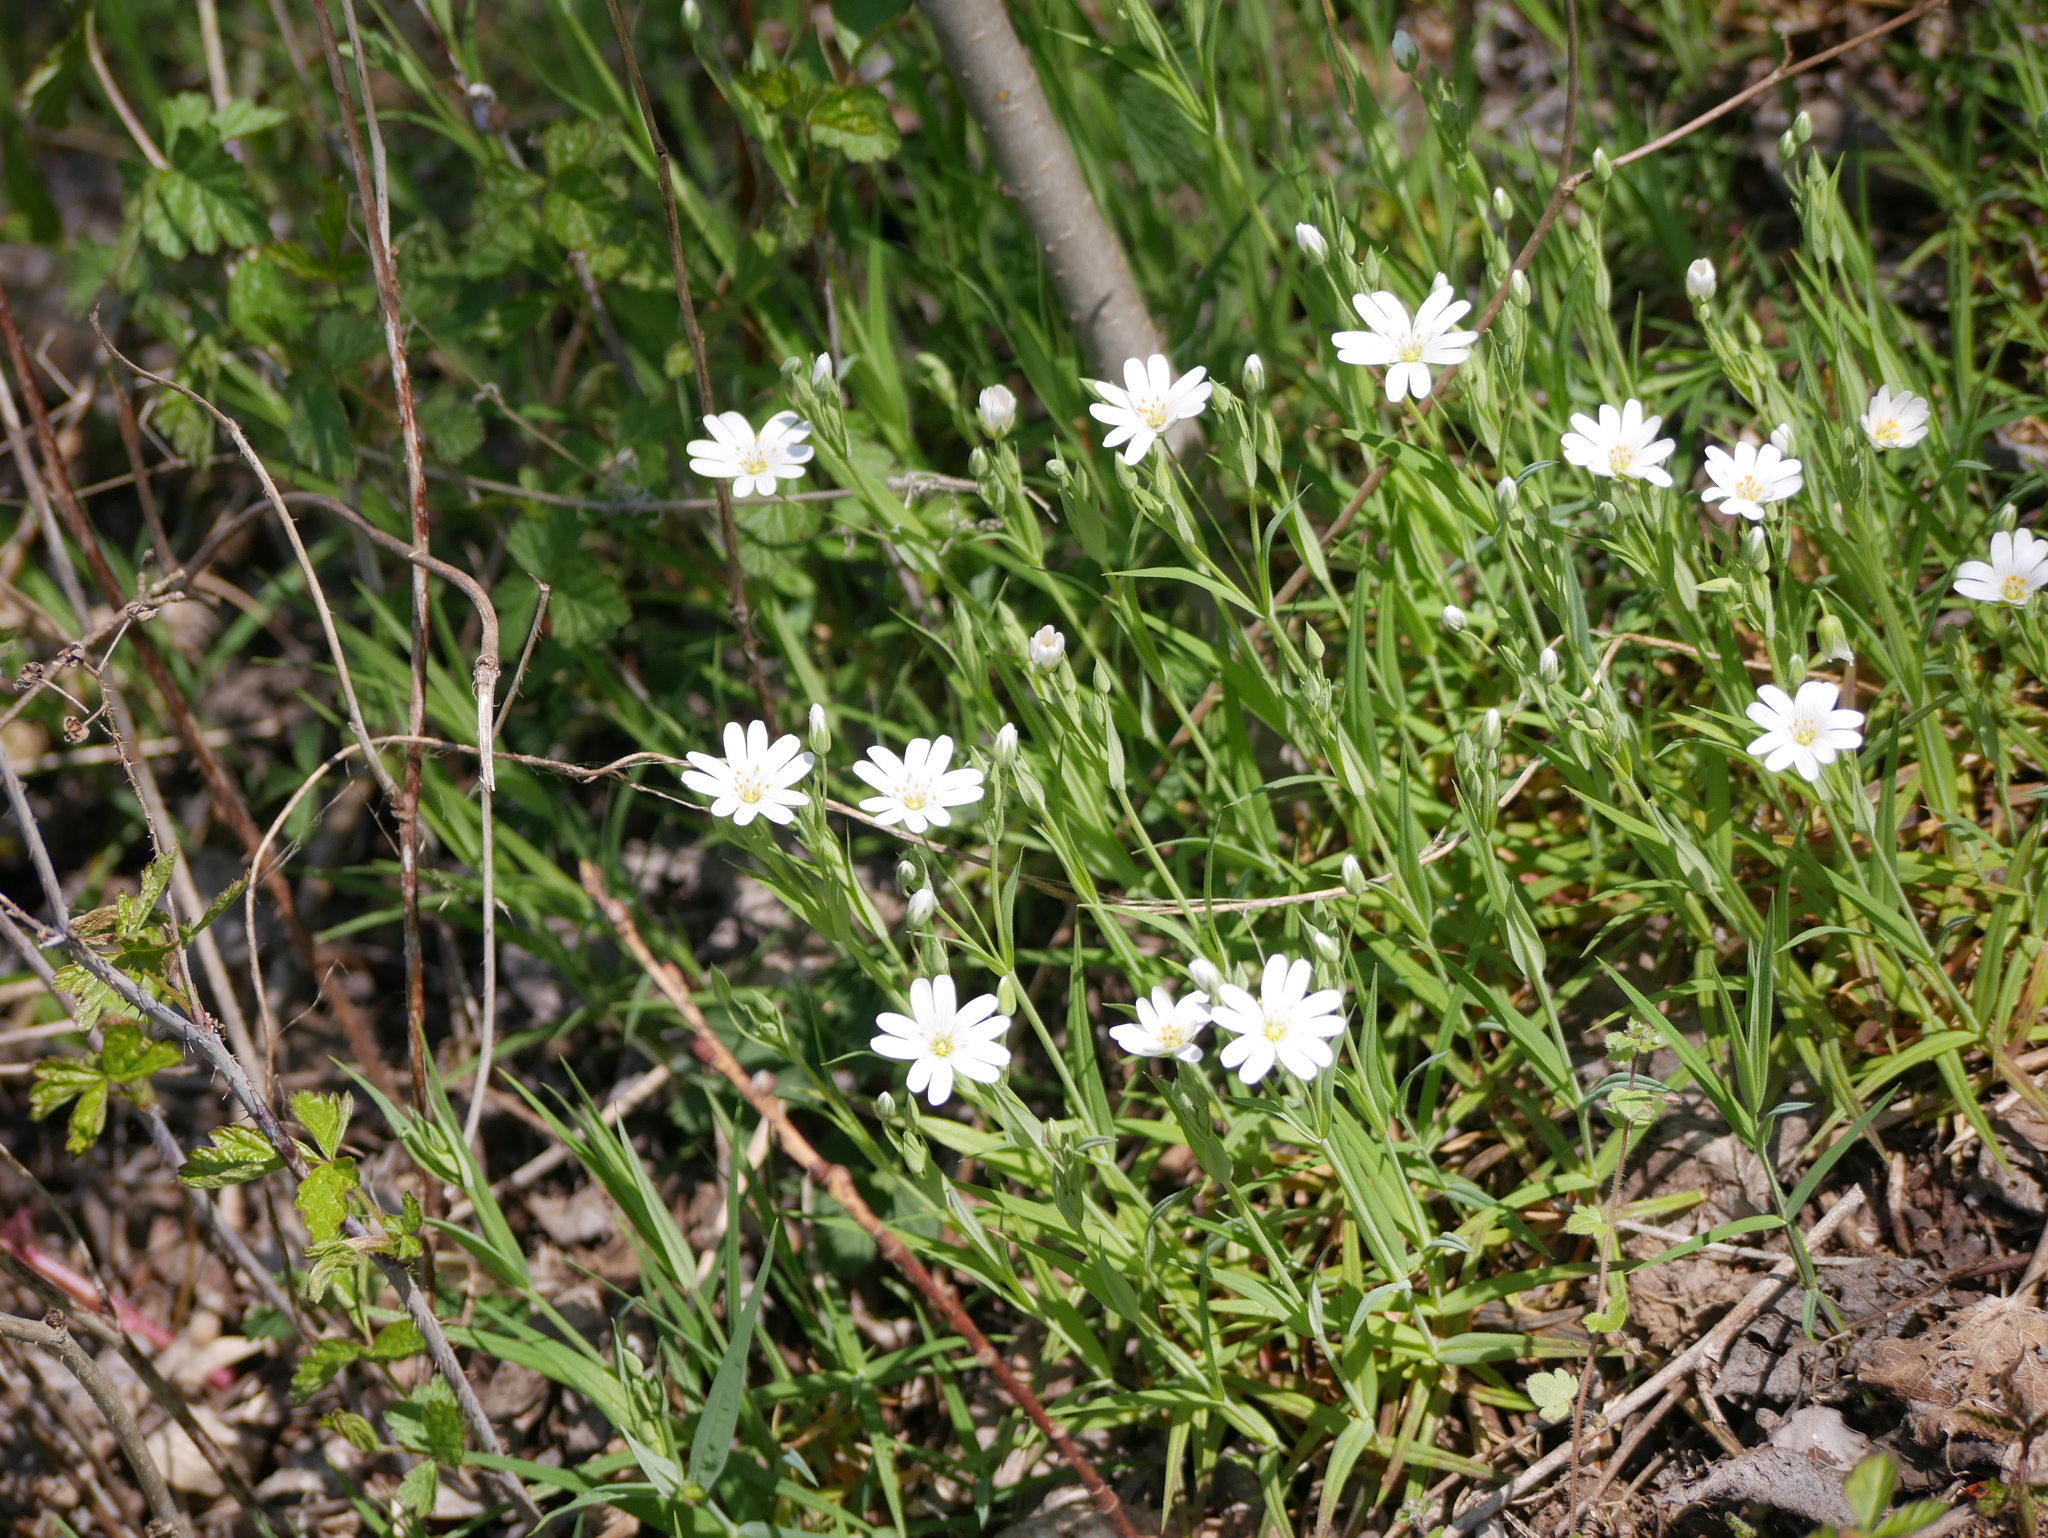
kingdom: Plantae
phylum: Tracheophyta
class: Magnoliopsida
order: Caryophyllales
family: Caryophyllaceae
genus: Rabelera
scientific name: Rabelera holostea
